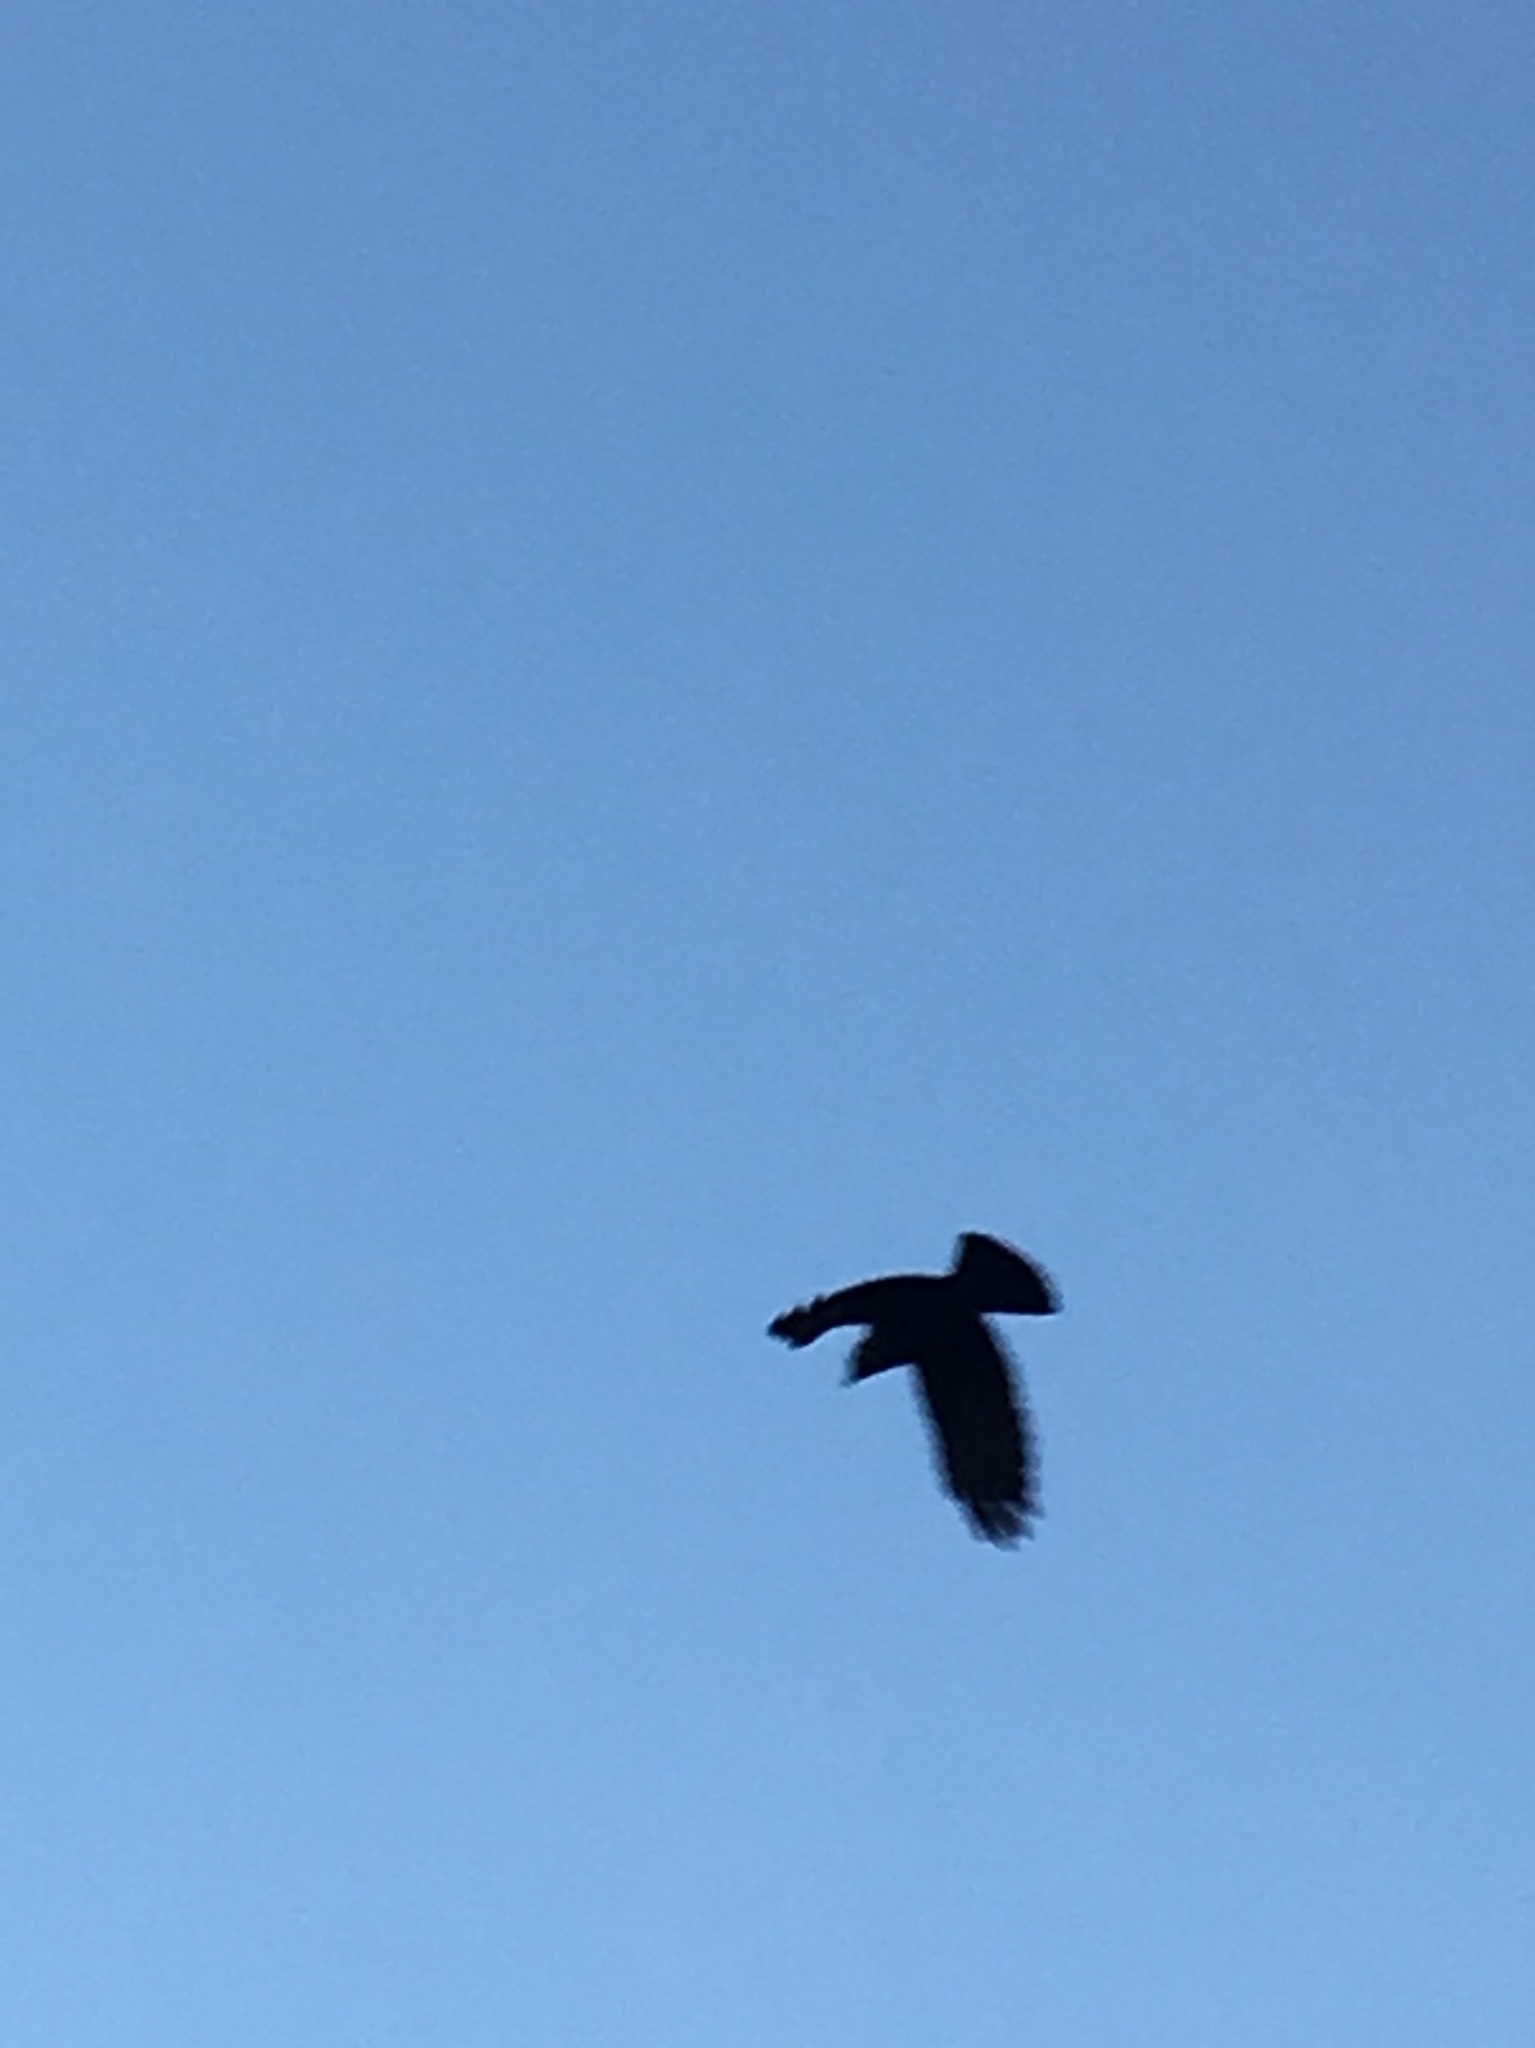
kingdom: Animalia
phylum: Chordata
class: Aves
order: Passeriformes
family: Corvidae
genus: Coloeus
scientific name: Coloeus monedula
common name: Western jackdaw
